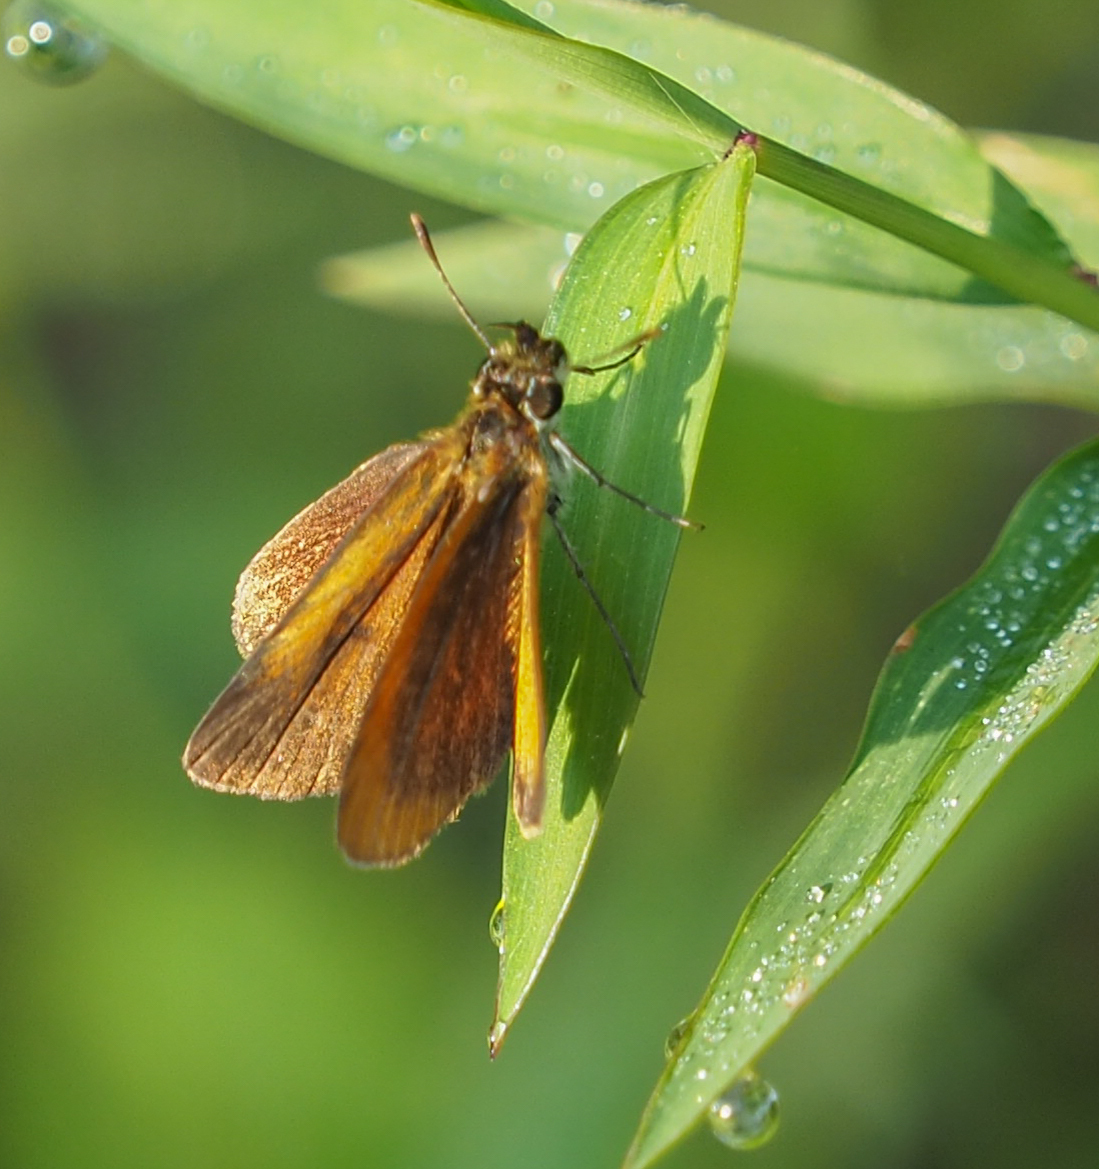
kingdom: Animalia
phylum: Arthropoda
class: Insecta
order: Lepidoptera
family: Hesperiidae
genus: Ancyloxypha
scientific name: Ancyloxypha numitor
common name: Least skipper
